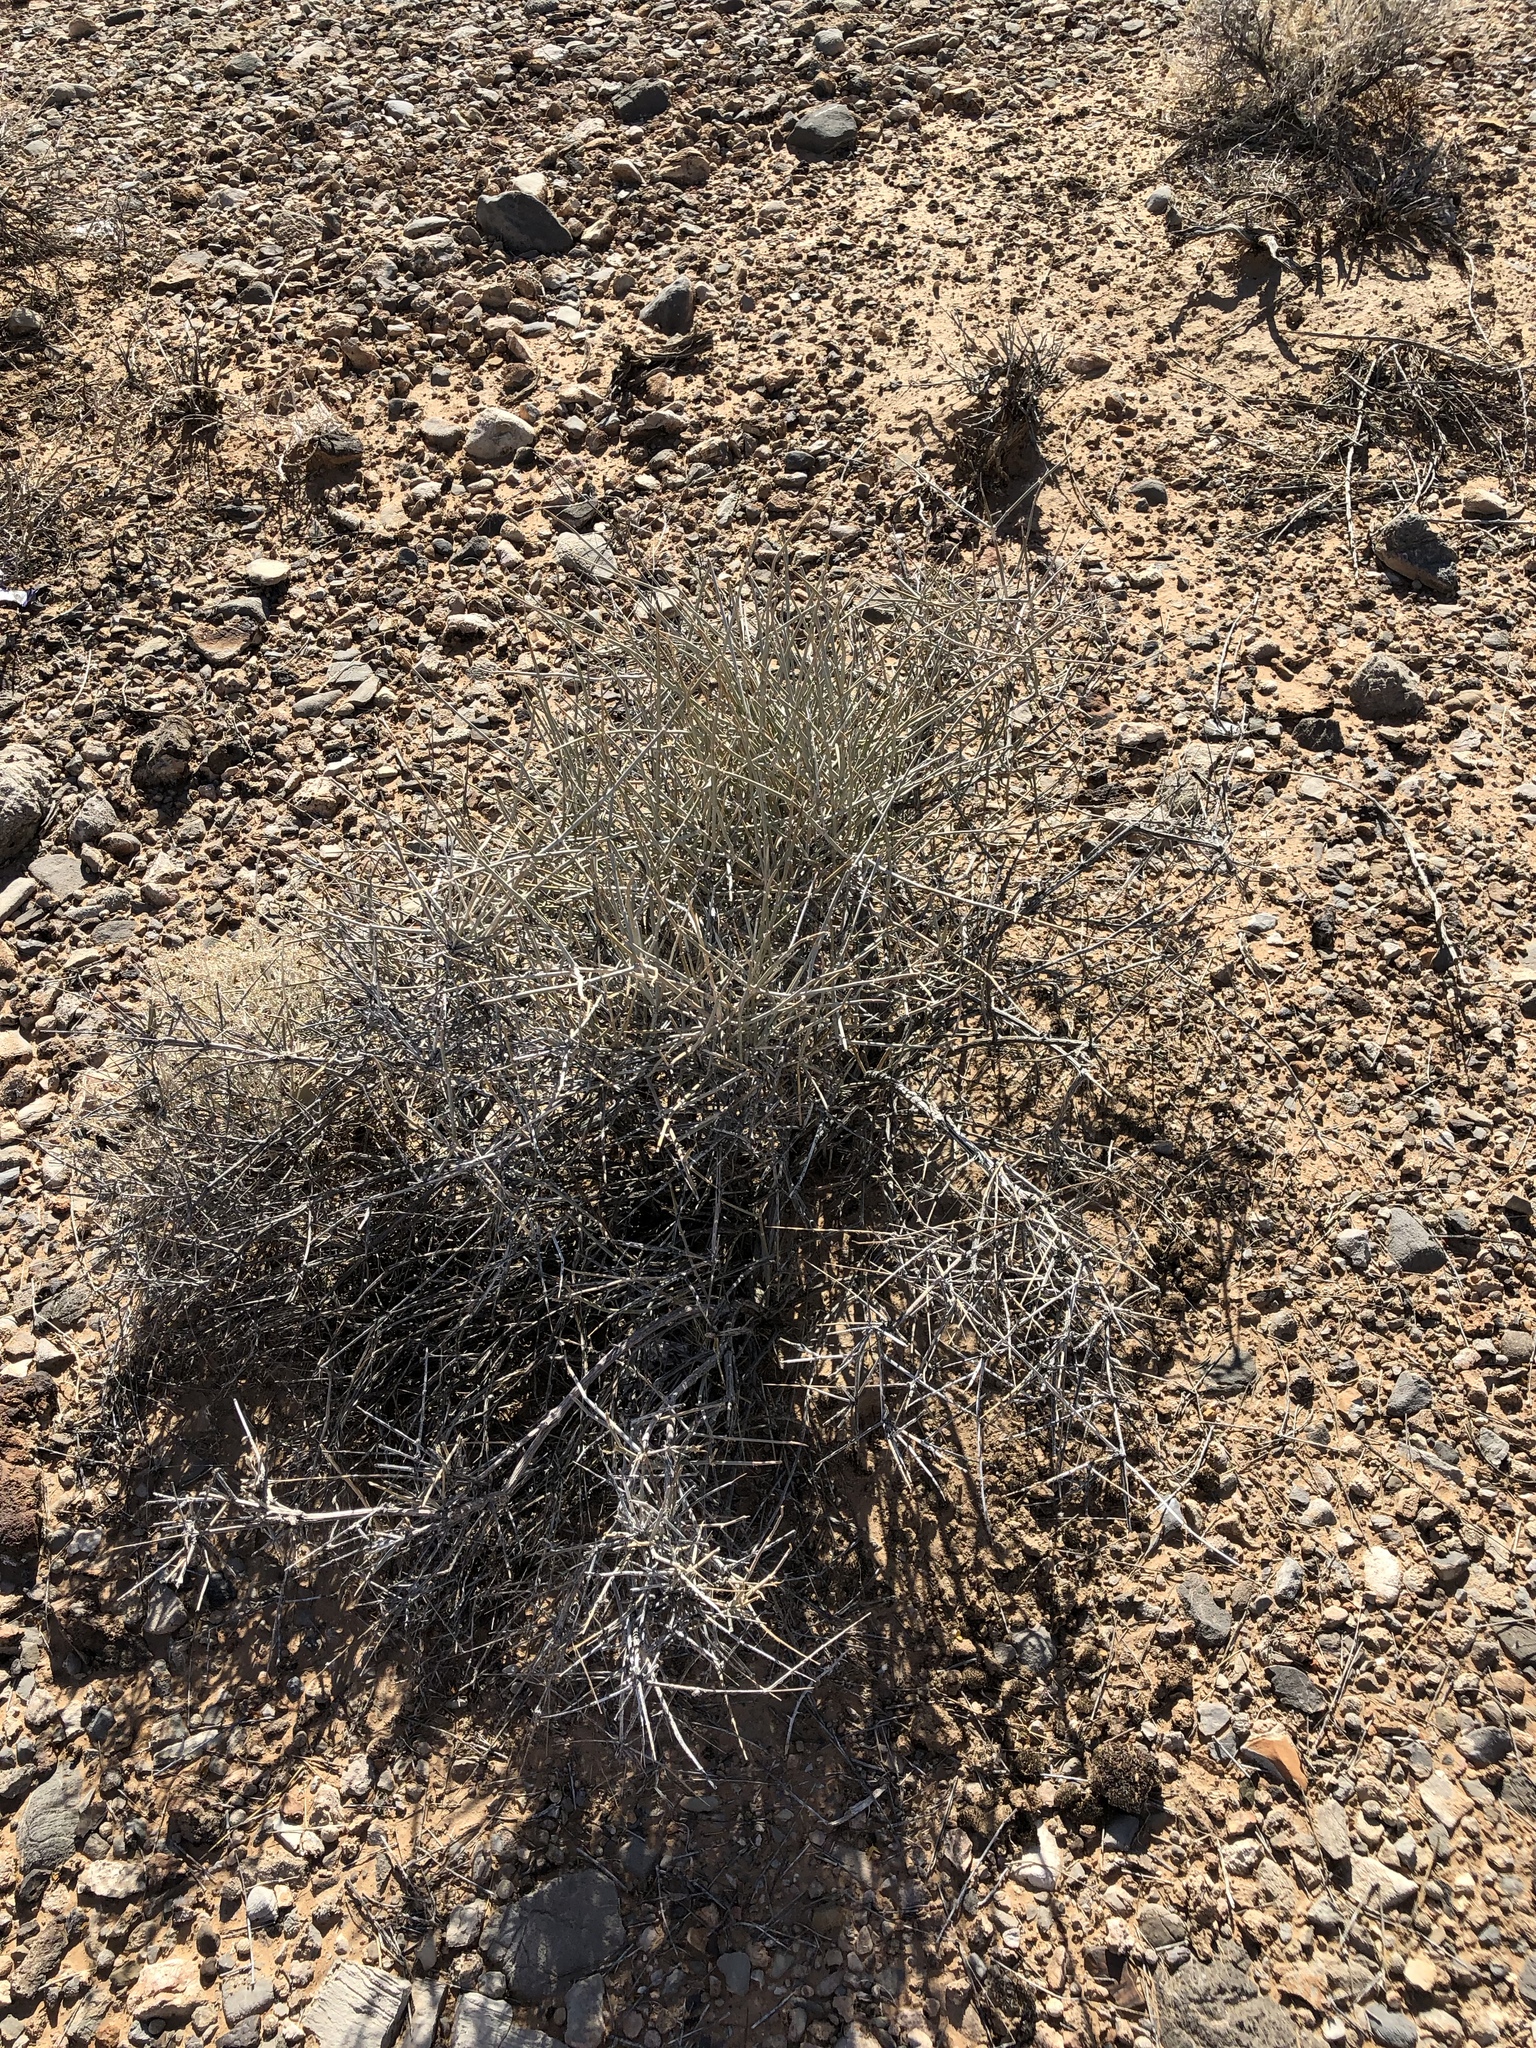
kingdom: Plantae
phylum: Tracheophyta
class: Gnetopsida
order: Ephedrales
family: Ephedraceae
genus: Ephedra
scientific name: Ephedra nevadensis
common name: Gray ephedra
